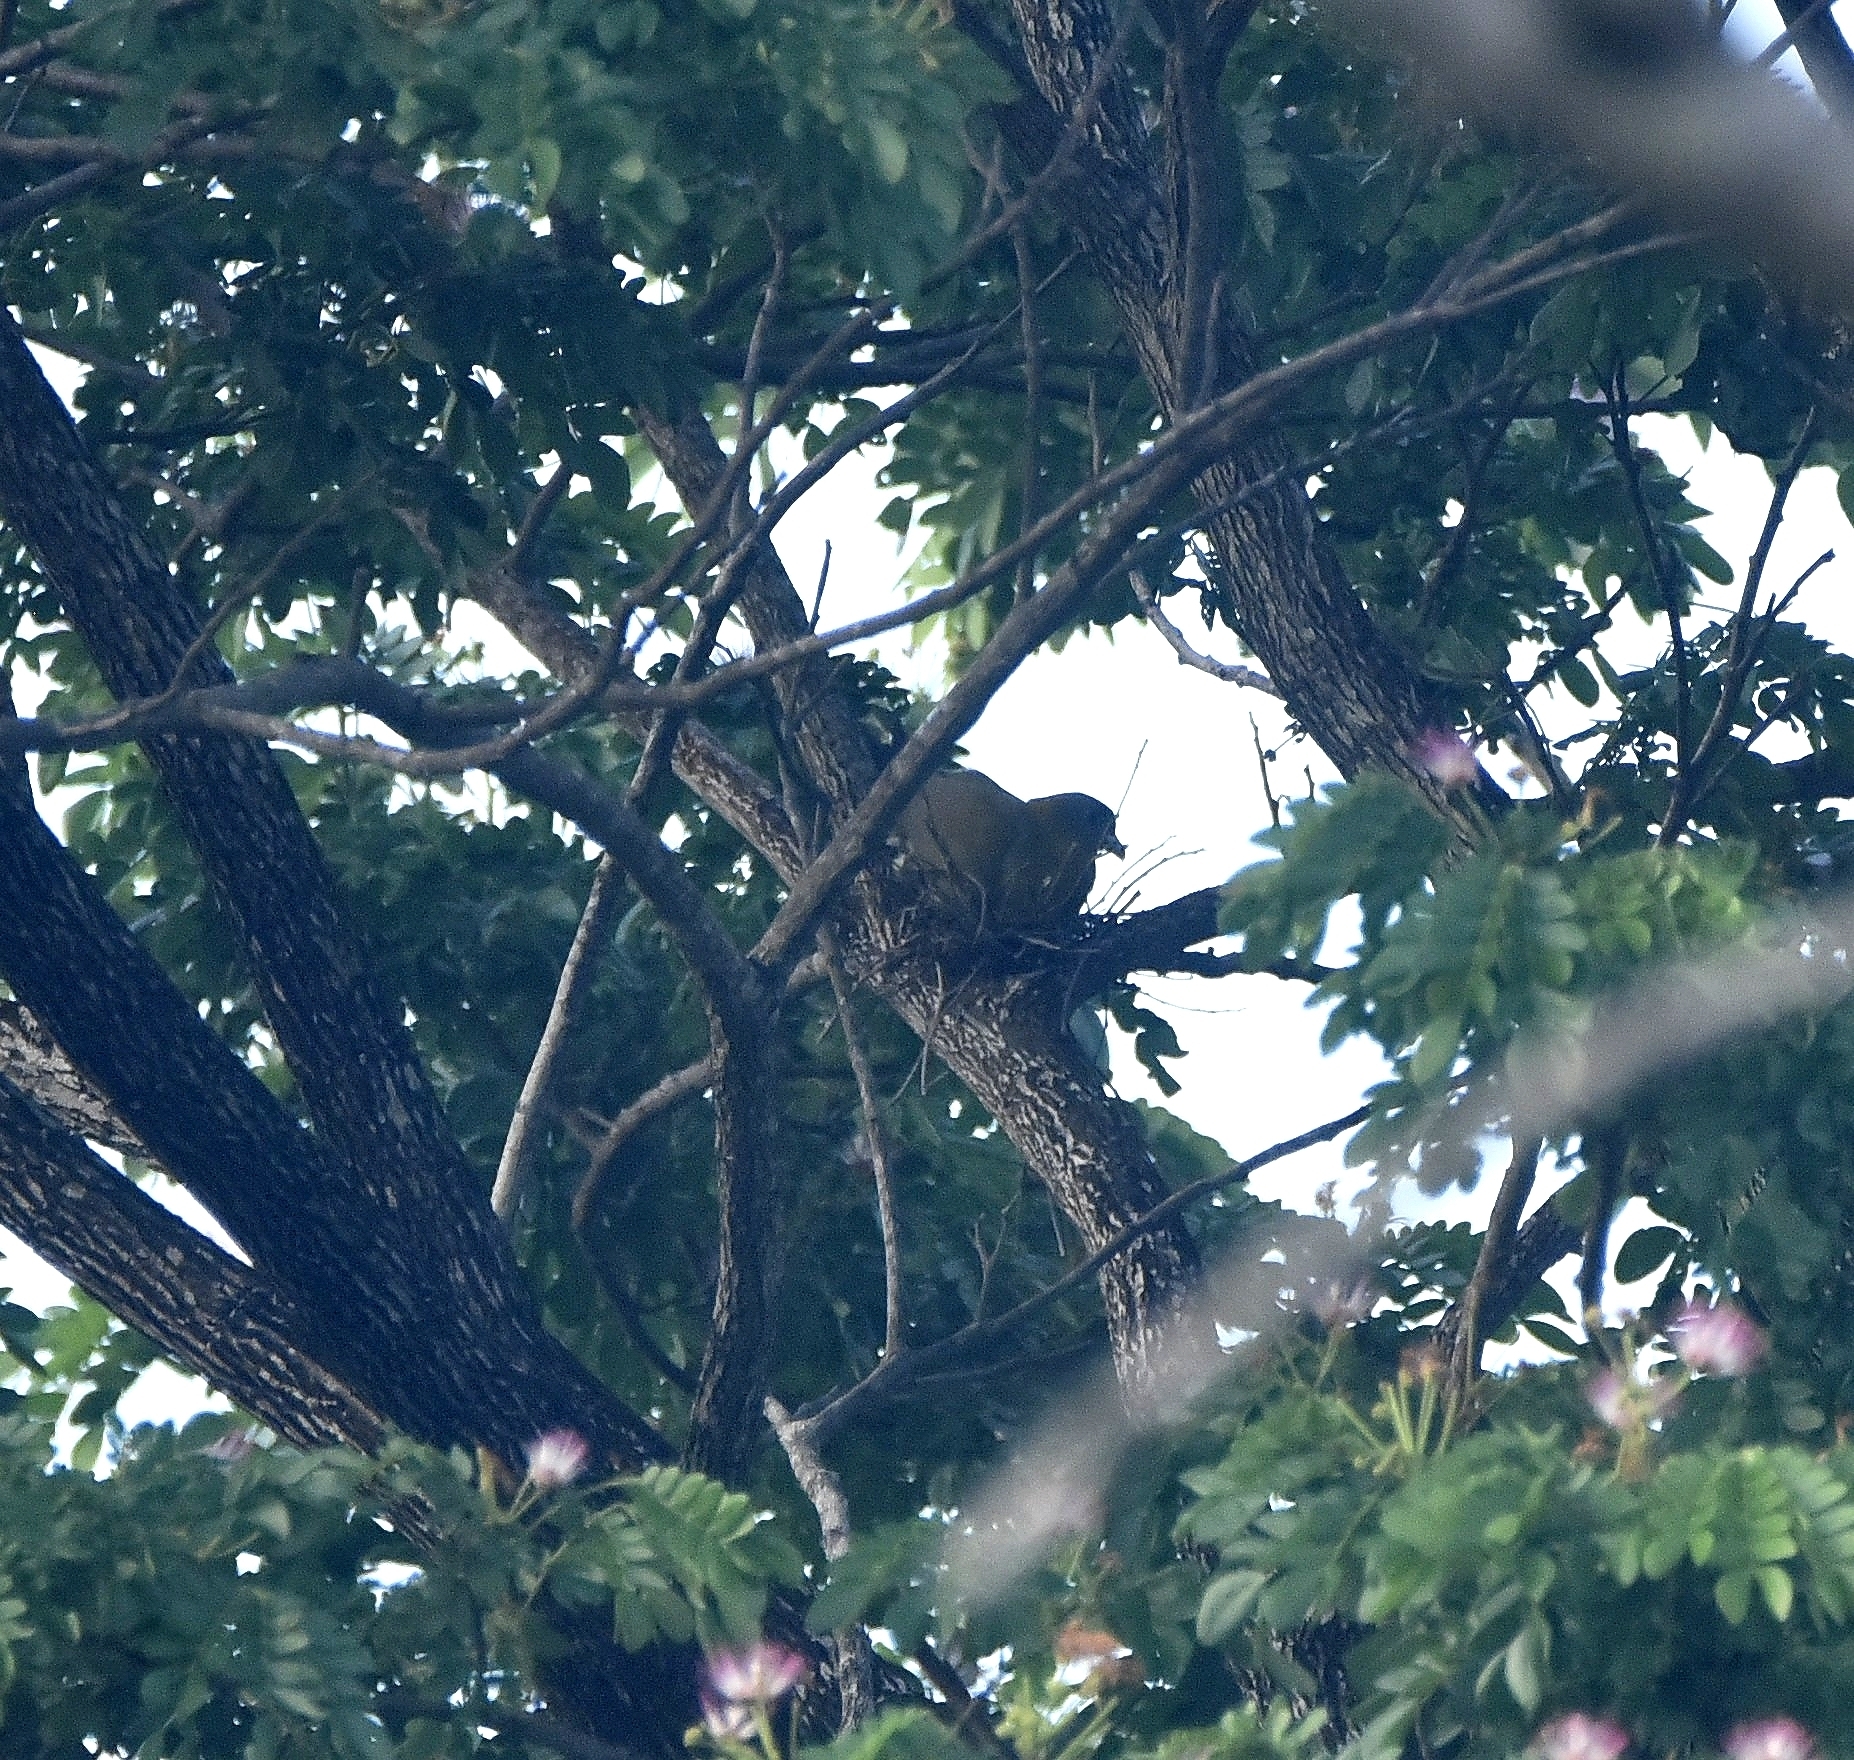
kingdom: Animalia
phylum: Chordata
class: Aves
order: Columbiformes
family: Columbidae
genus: Treron
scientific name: Treron phoenicopterus
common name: Yellow-footed green pigeon
